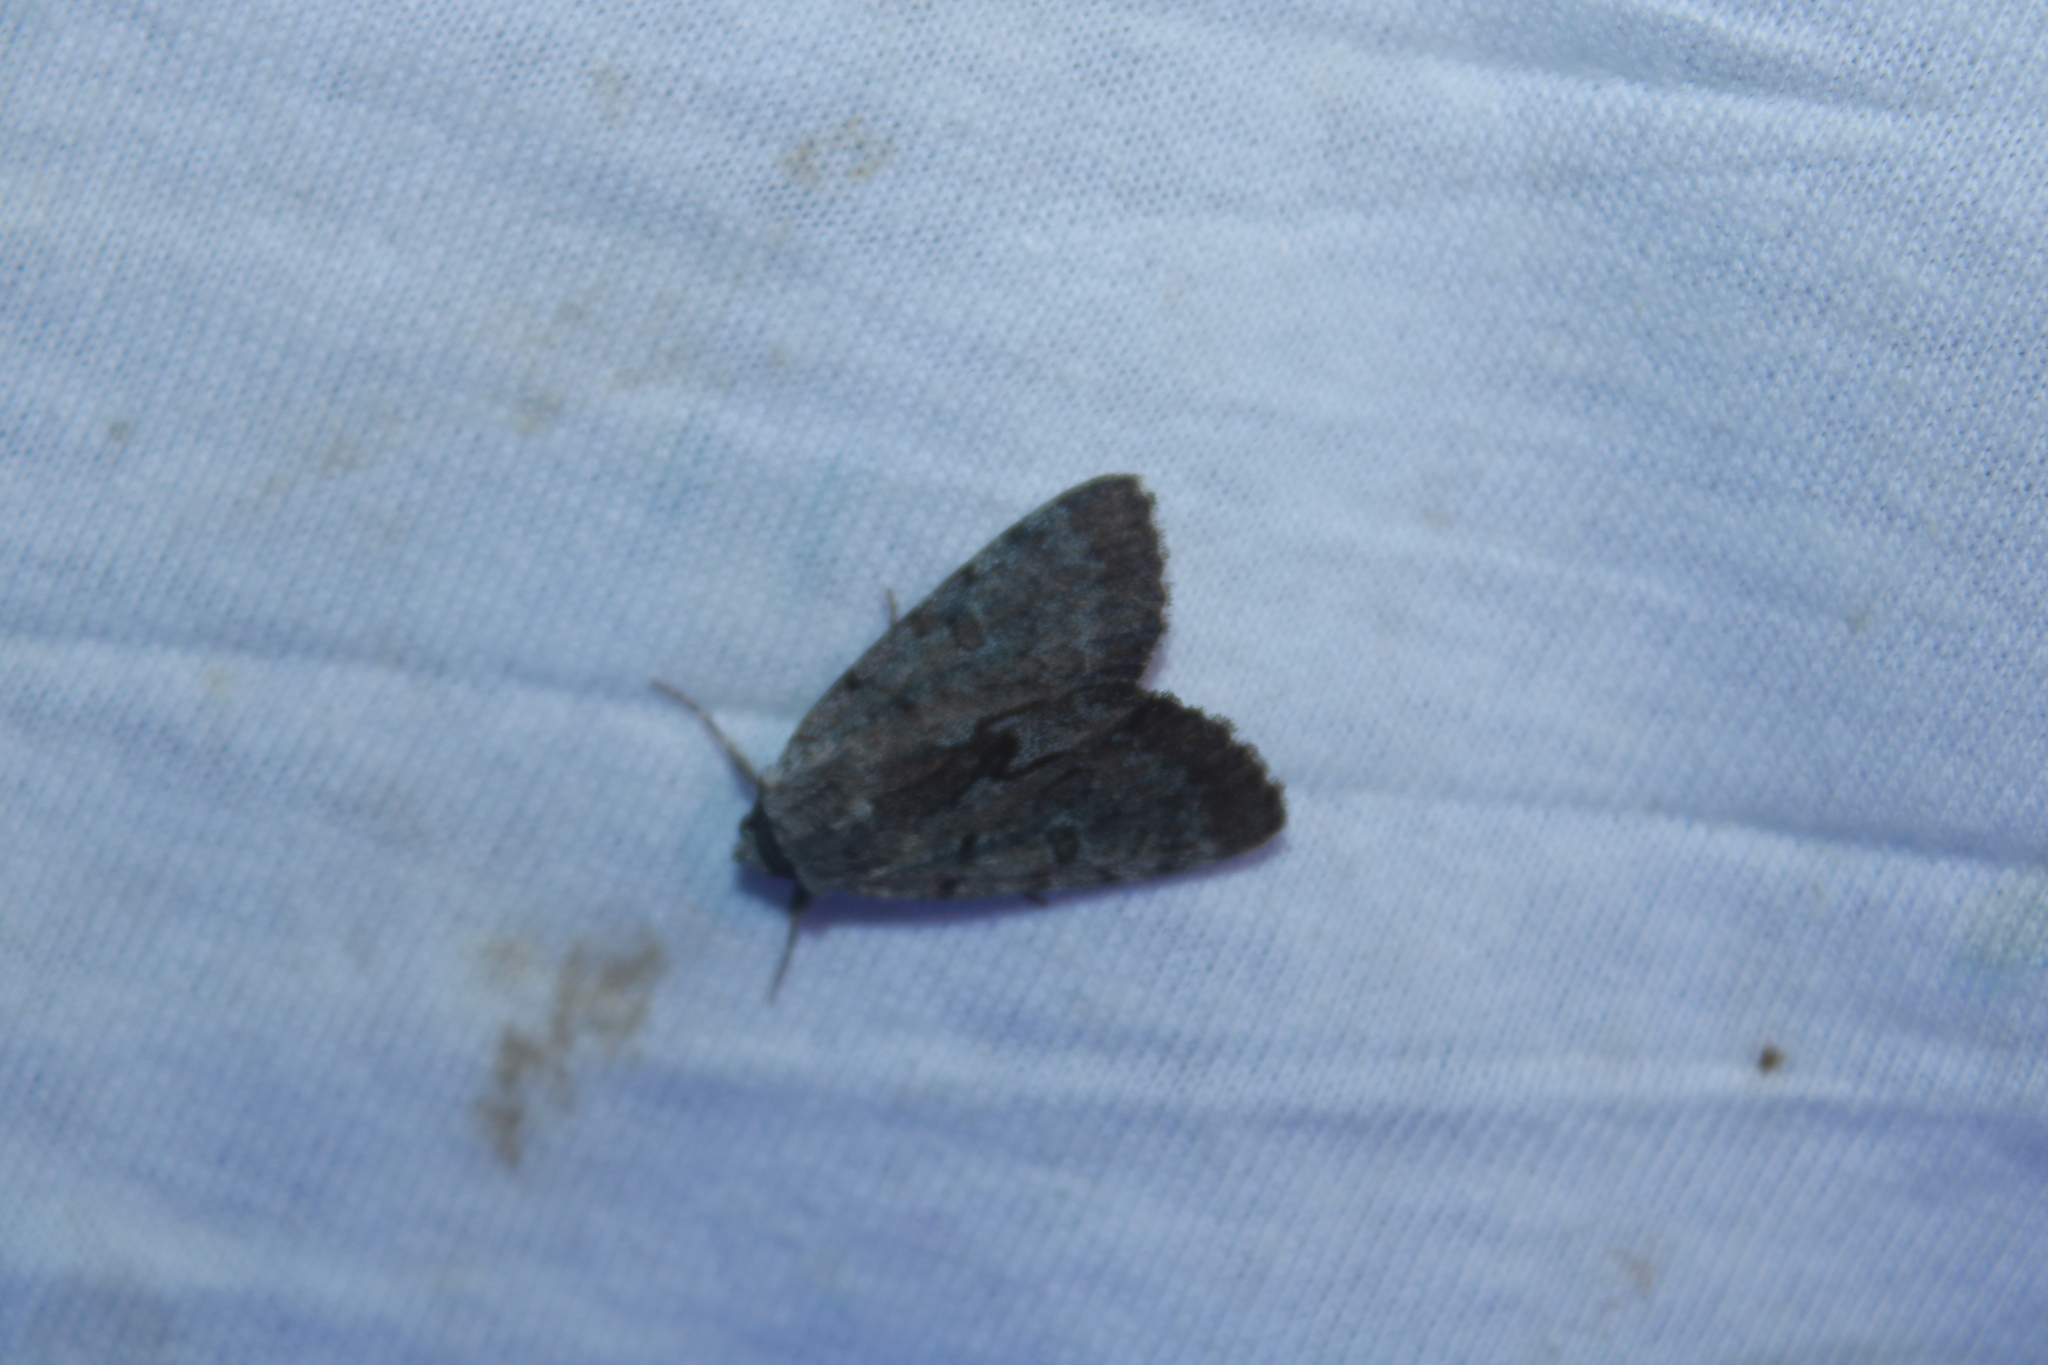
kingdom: Animalia
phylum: Arthropoda
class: Insecta
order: Lepidoptera
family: Erebidae
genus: Catocala
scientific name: Catocala sordida
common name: Sordid underwing
